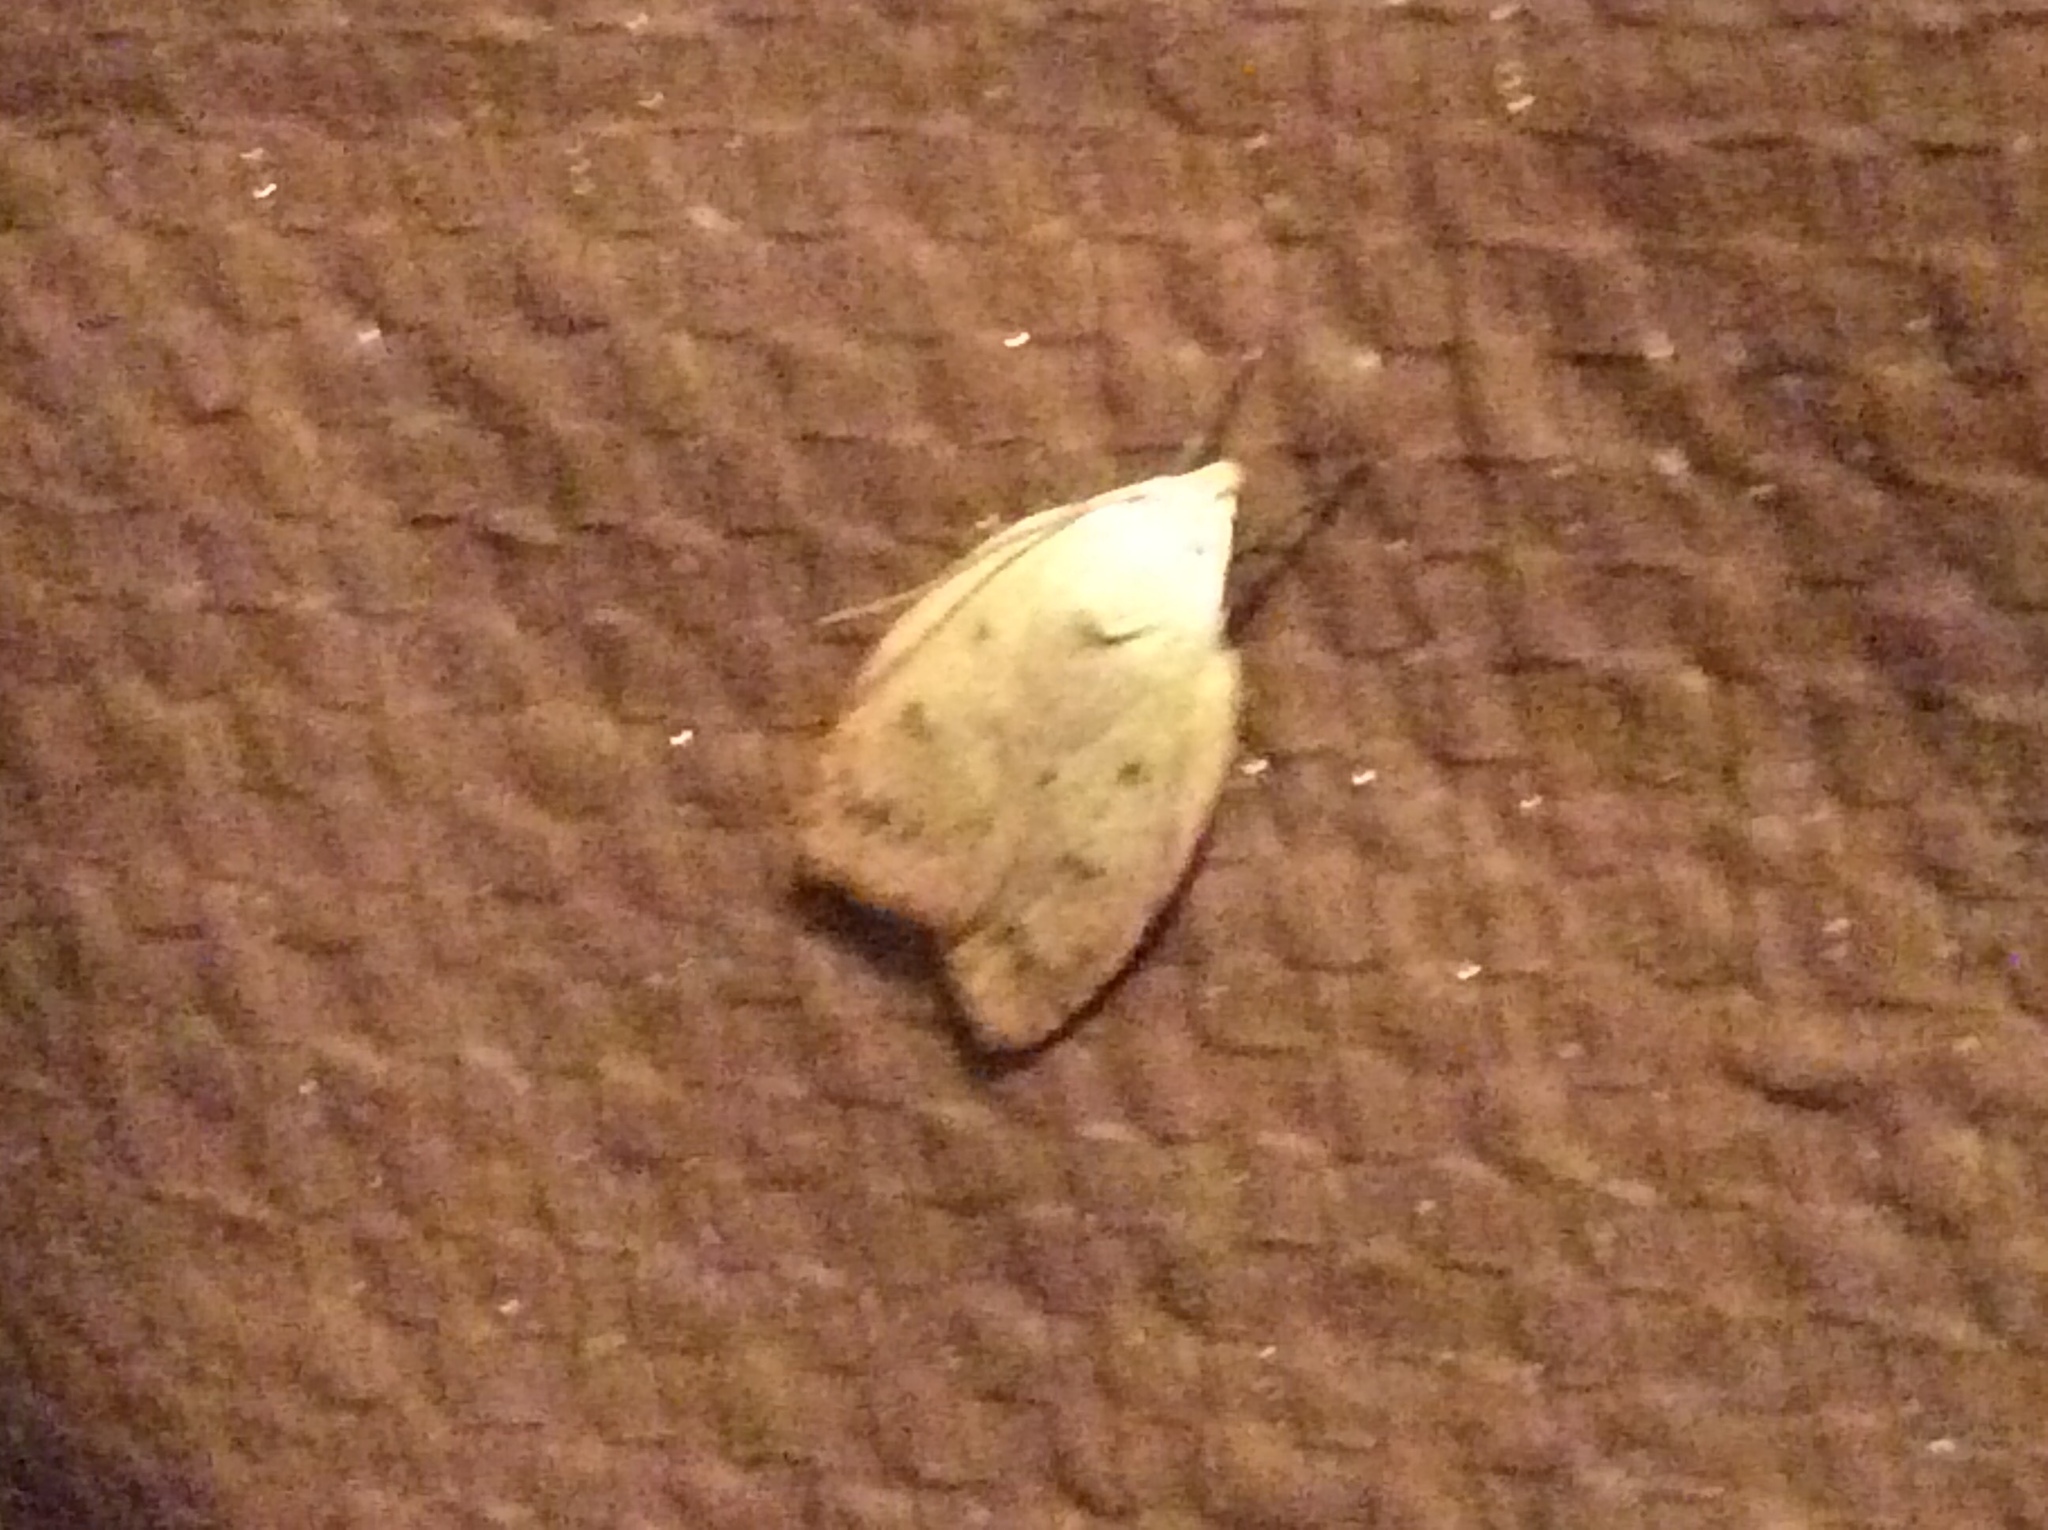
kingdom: Animalia
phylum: Arthropoda
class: Insecta
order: Lepidoptera
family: Peleopodidae
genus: Machimia
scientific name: Machimia tentoriferella
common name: Gold-striped leaftier moth
